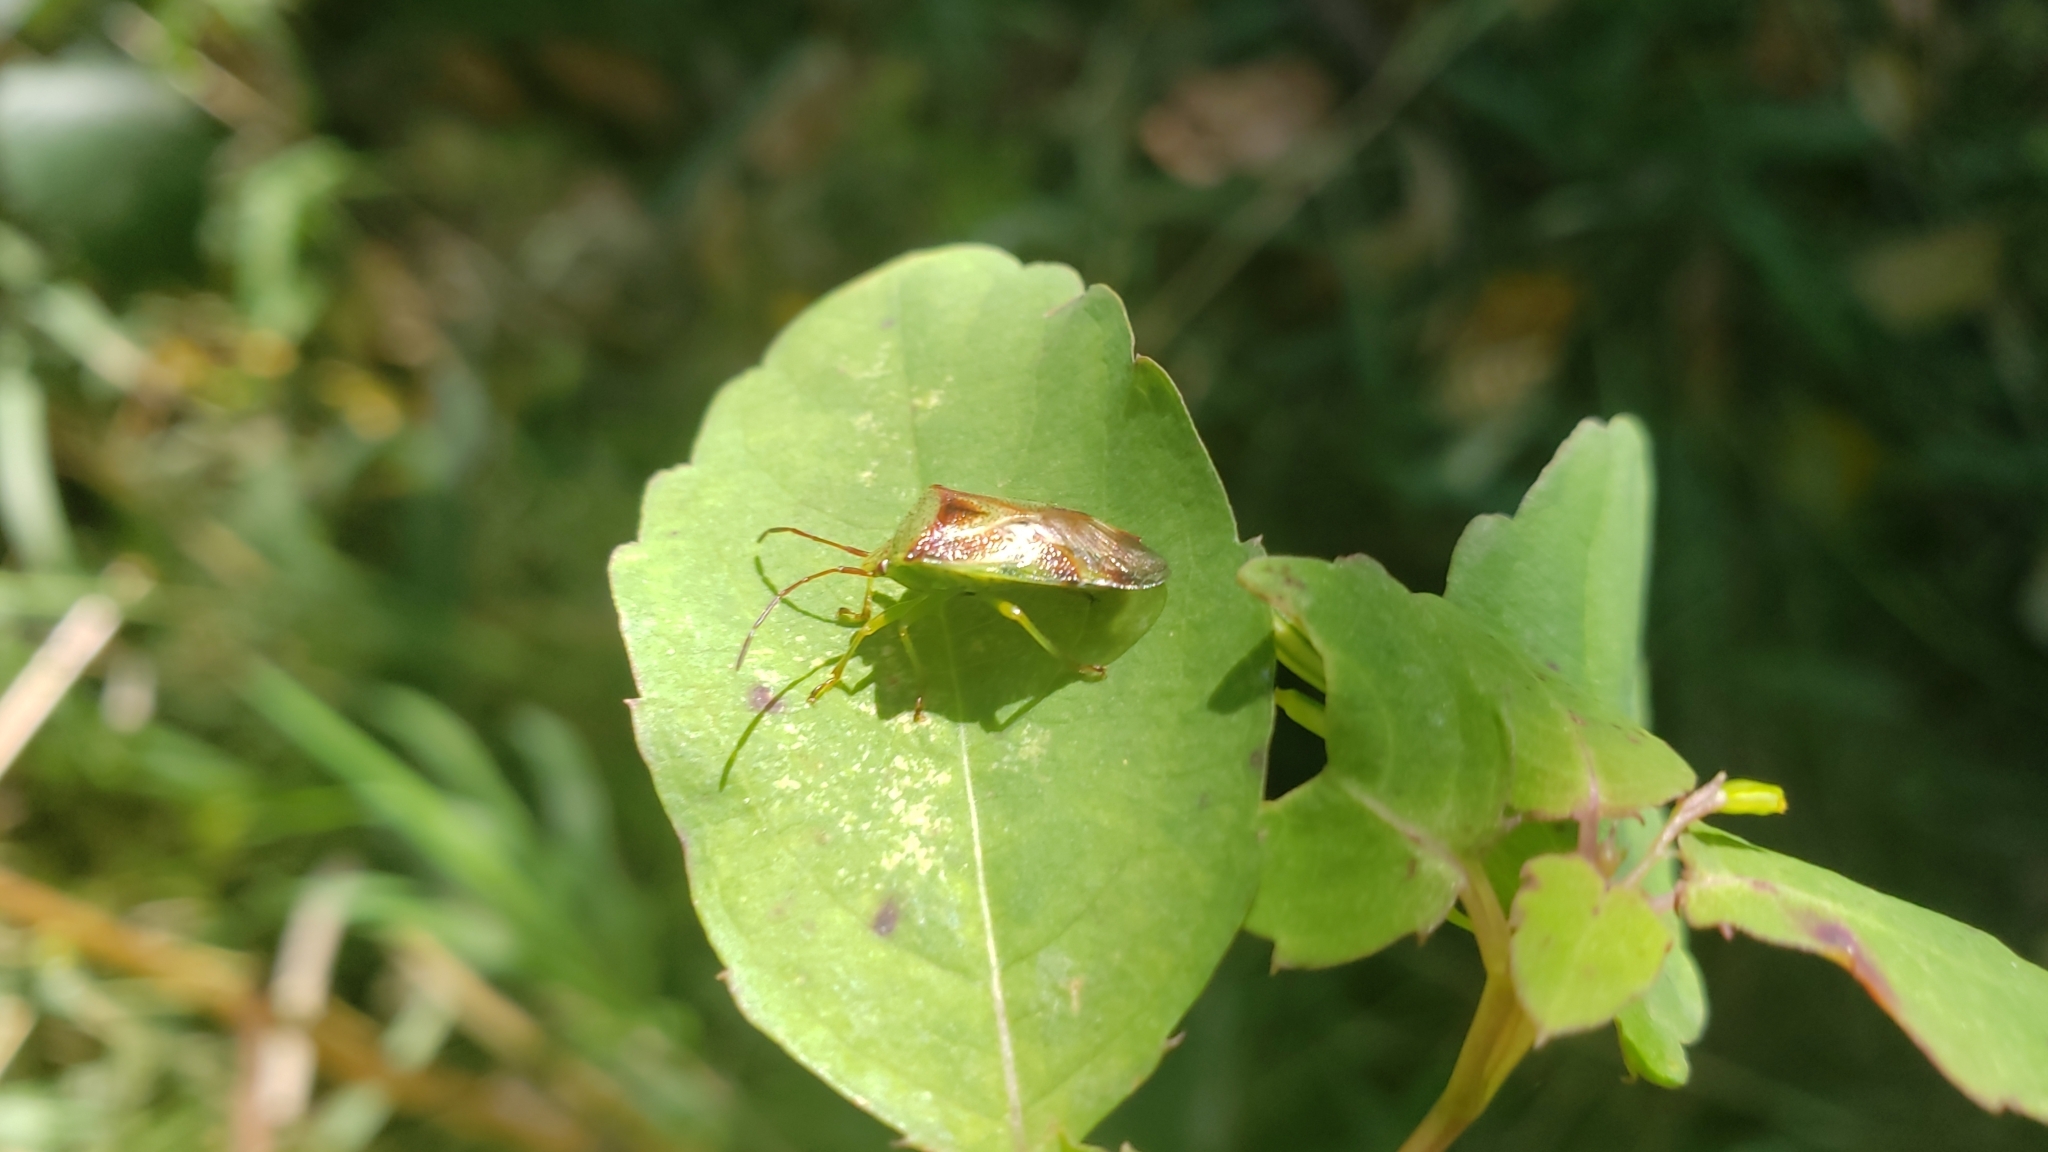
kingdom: Animalia
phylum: Arthropoda
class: Insecta
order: Hemiptera
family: Acanthosomatidae
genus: Elasmostethus
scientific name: Elasmostethus cruciatus
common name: Red-cross shield bug
